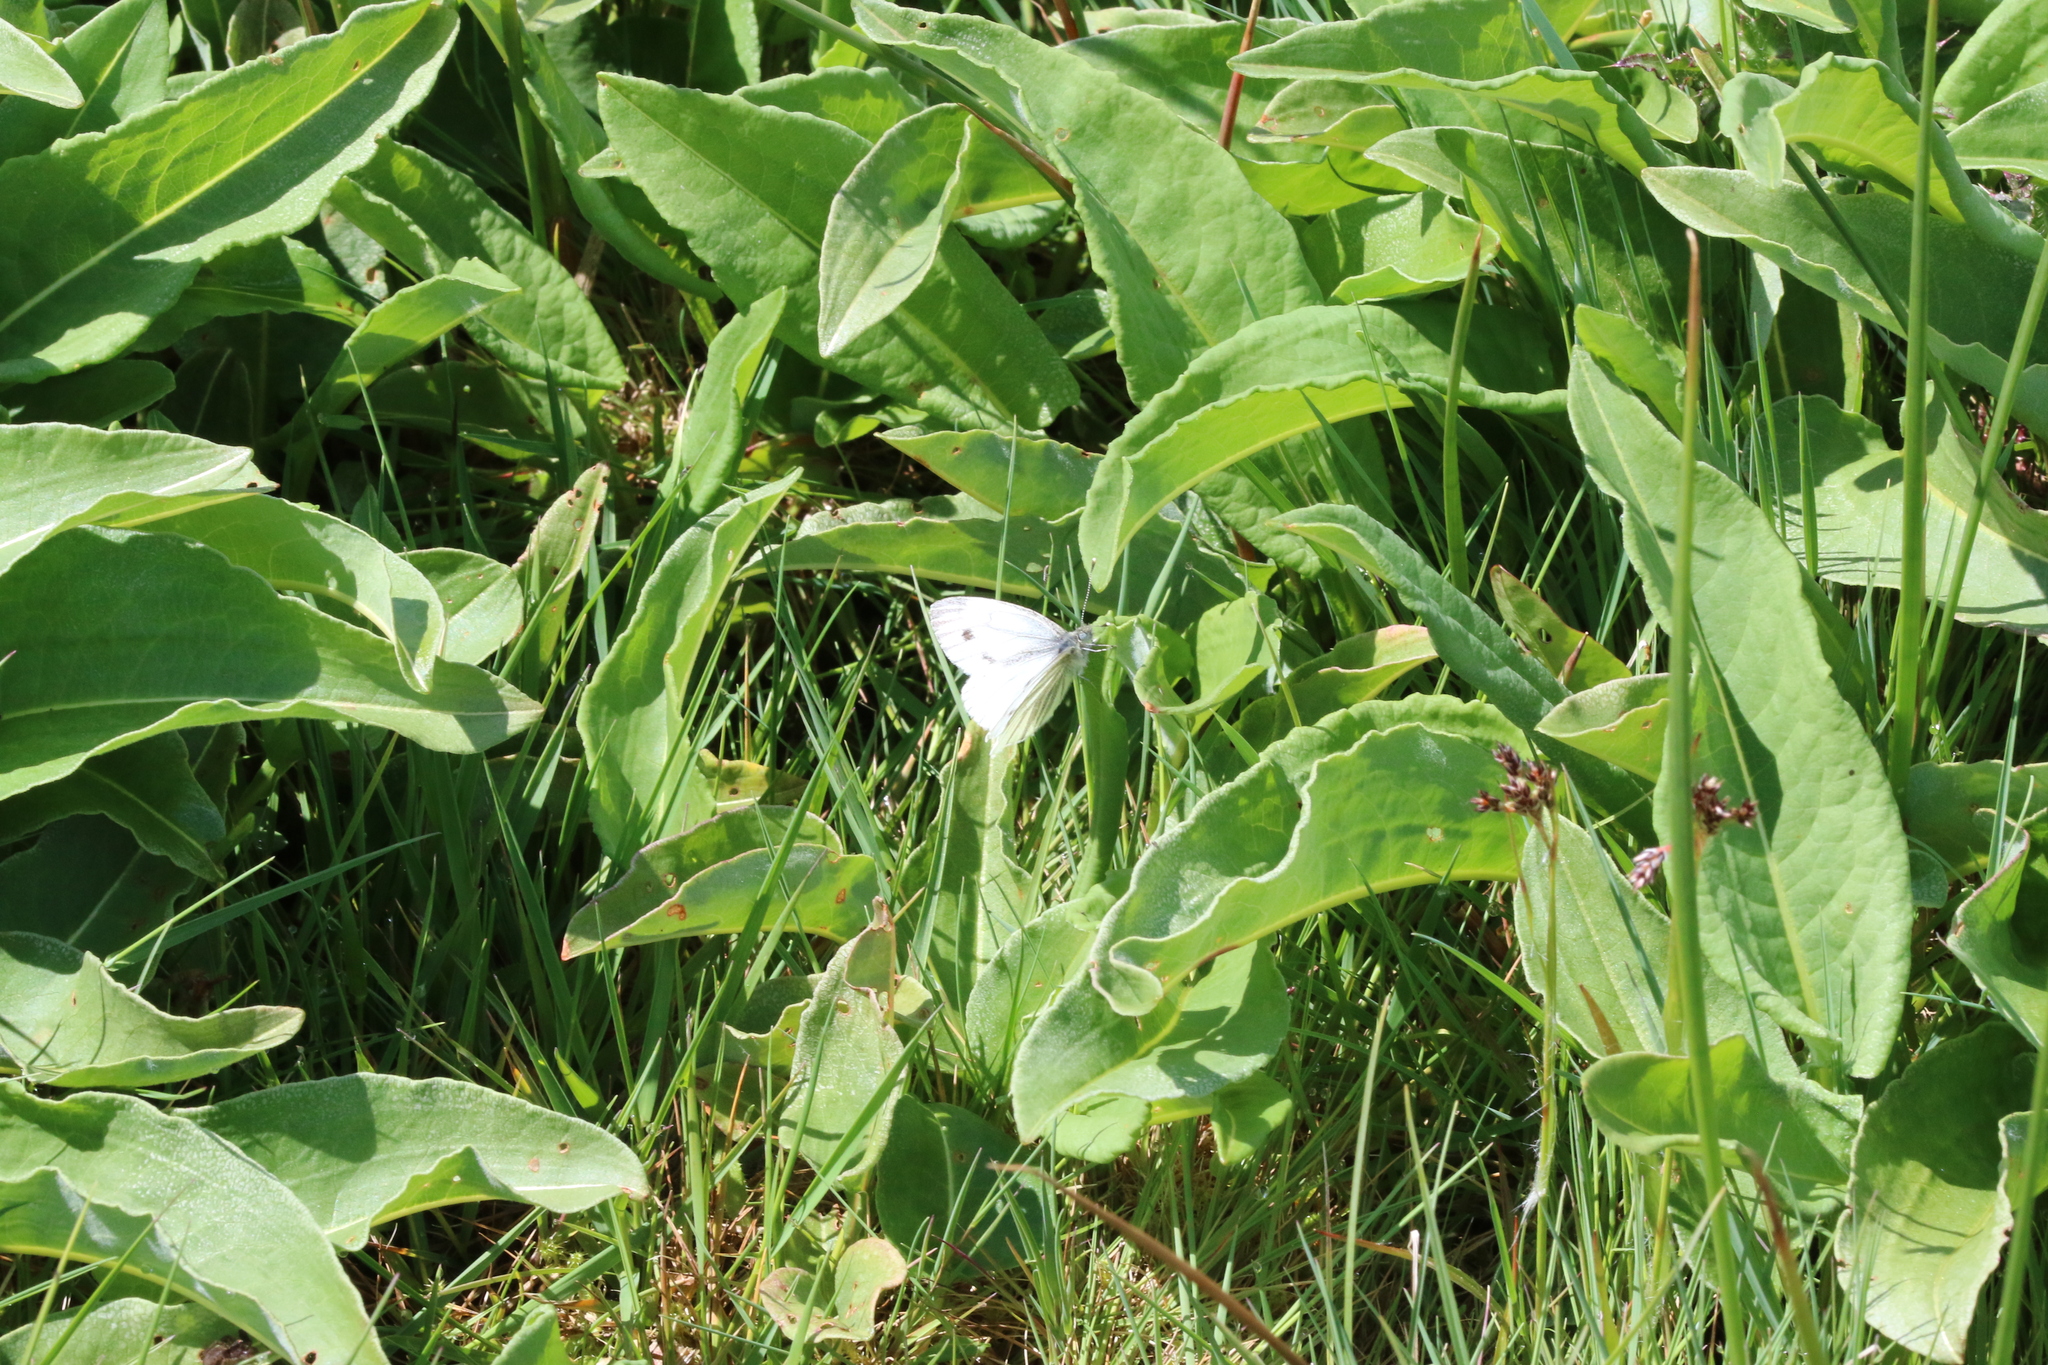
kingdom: Animalia
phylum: Arthropoda
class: Insecta
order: Lepidoptera
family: Pieridae
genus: Pieris
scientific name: Pieris napi
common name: Green-veined white
